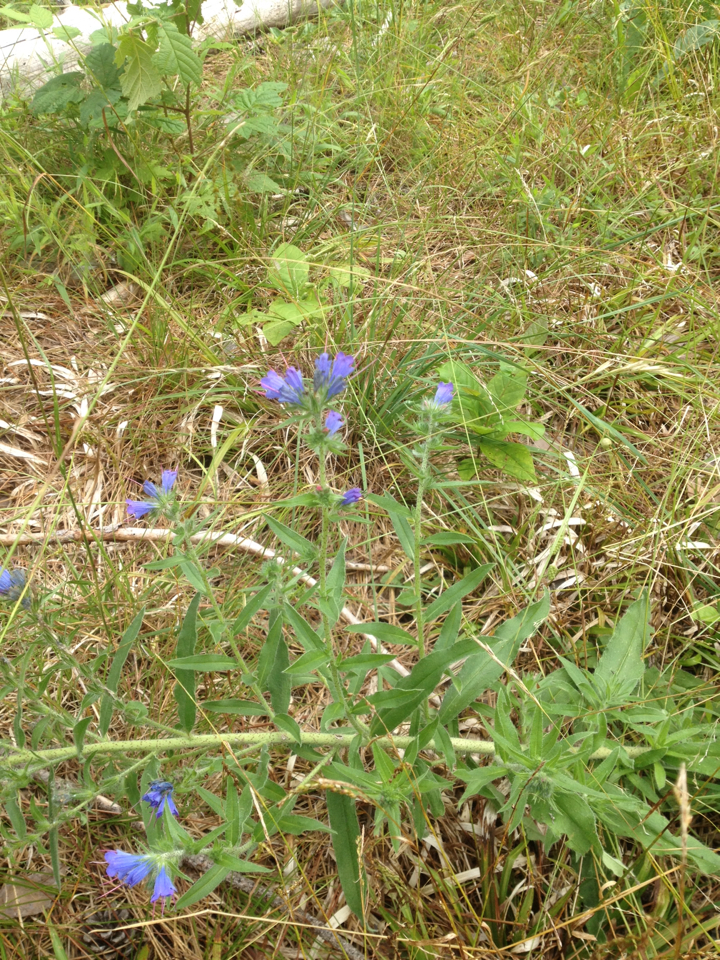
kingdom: Plantae
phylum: Tracheophyta
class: Magnoliopsida
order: Boraginales
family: Boraginaceae
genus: Echium
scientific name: Echium vulgare
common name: Common viper's bugloss
